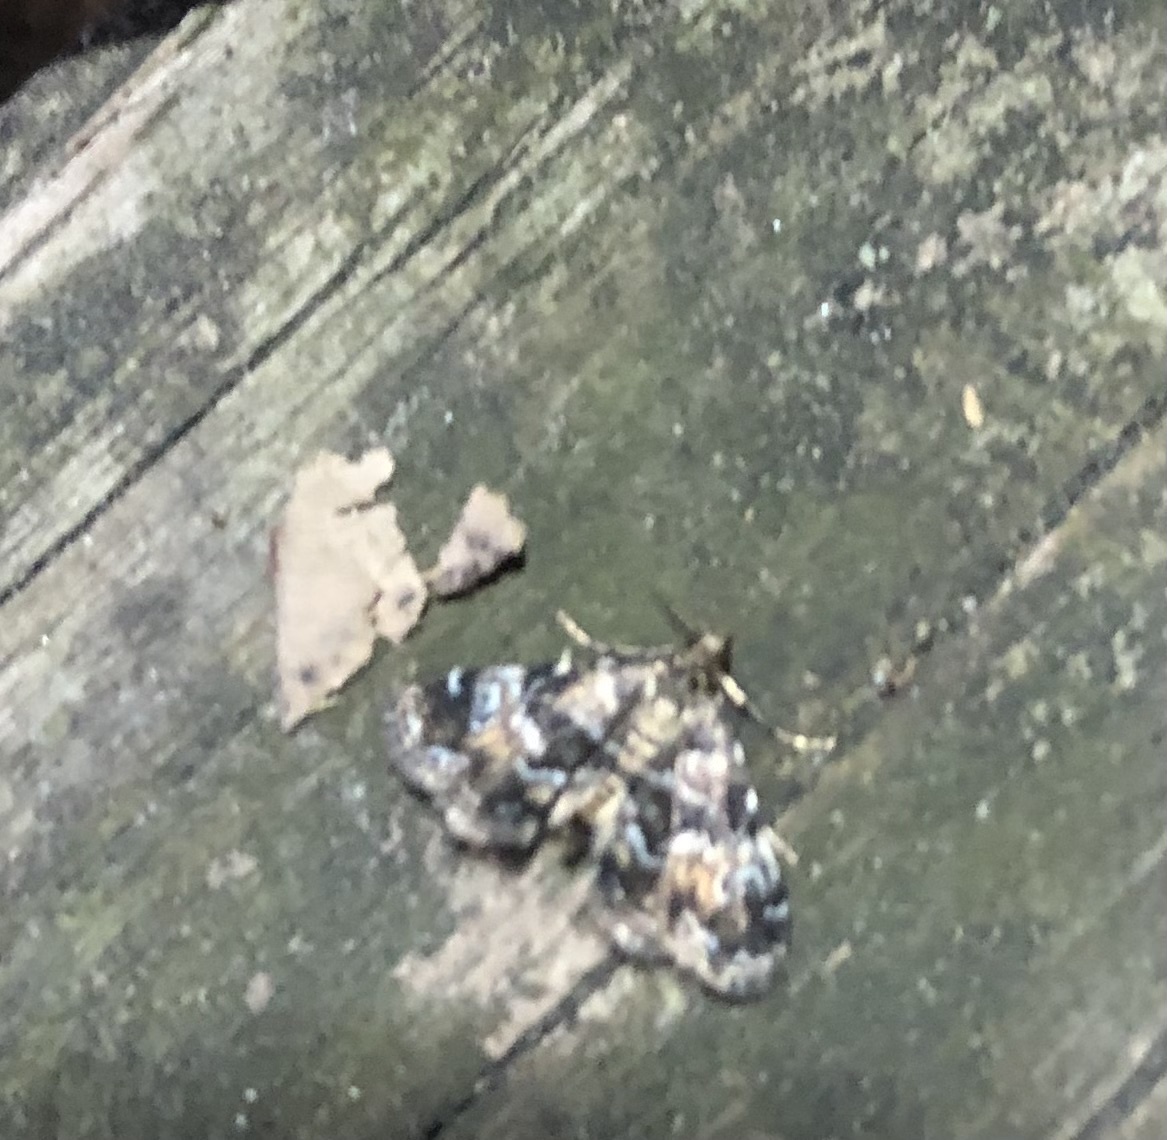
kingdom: Animalia
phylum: Arthropoda
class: Insecta
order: Lepidoptera
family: Crambidae
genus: Elophila
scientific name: Elophila obliteralis
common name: Waterlily leafcutter moth
